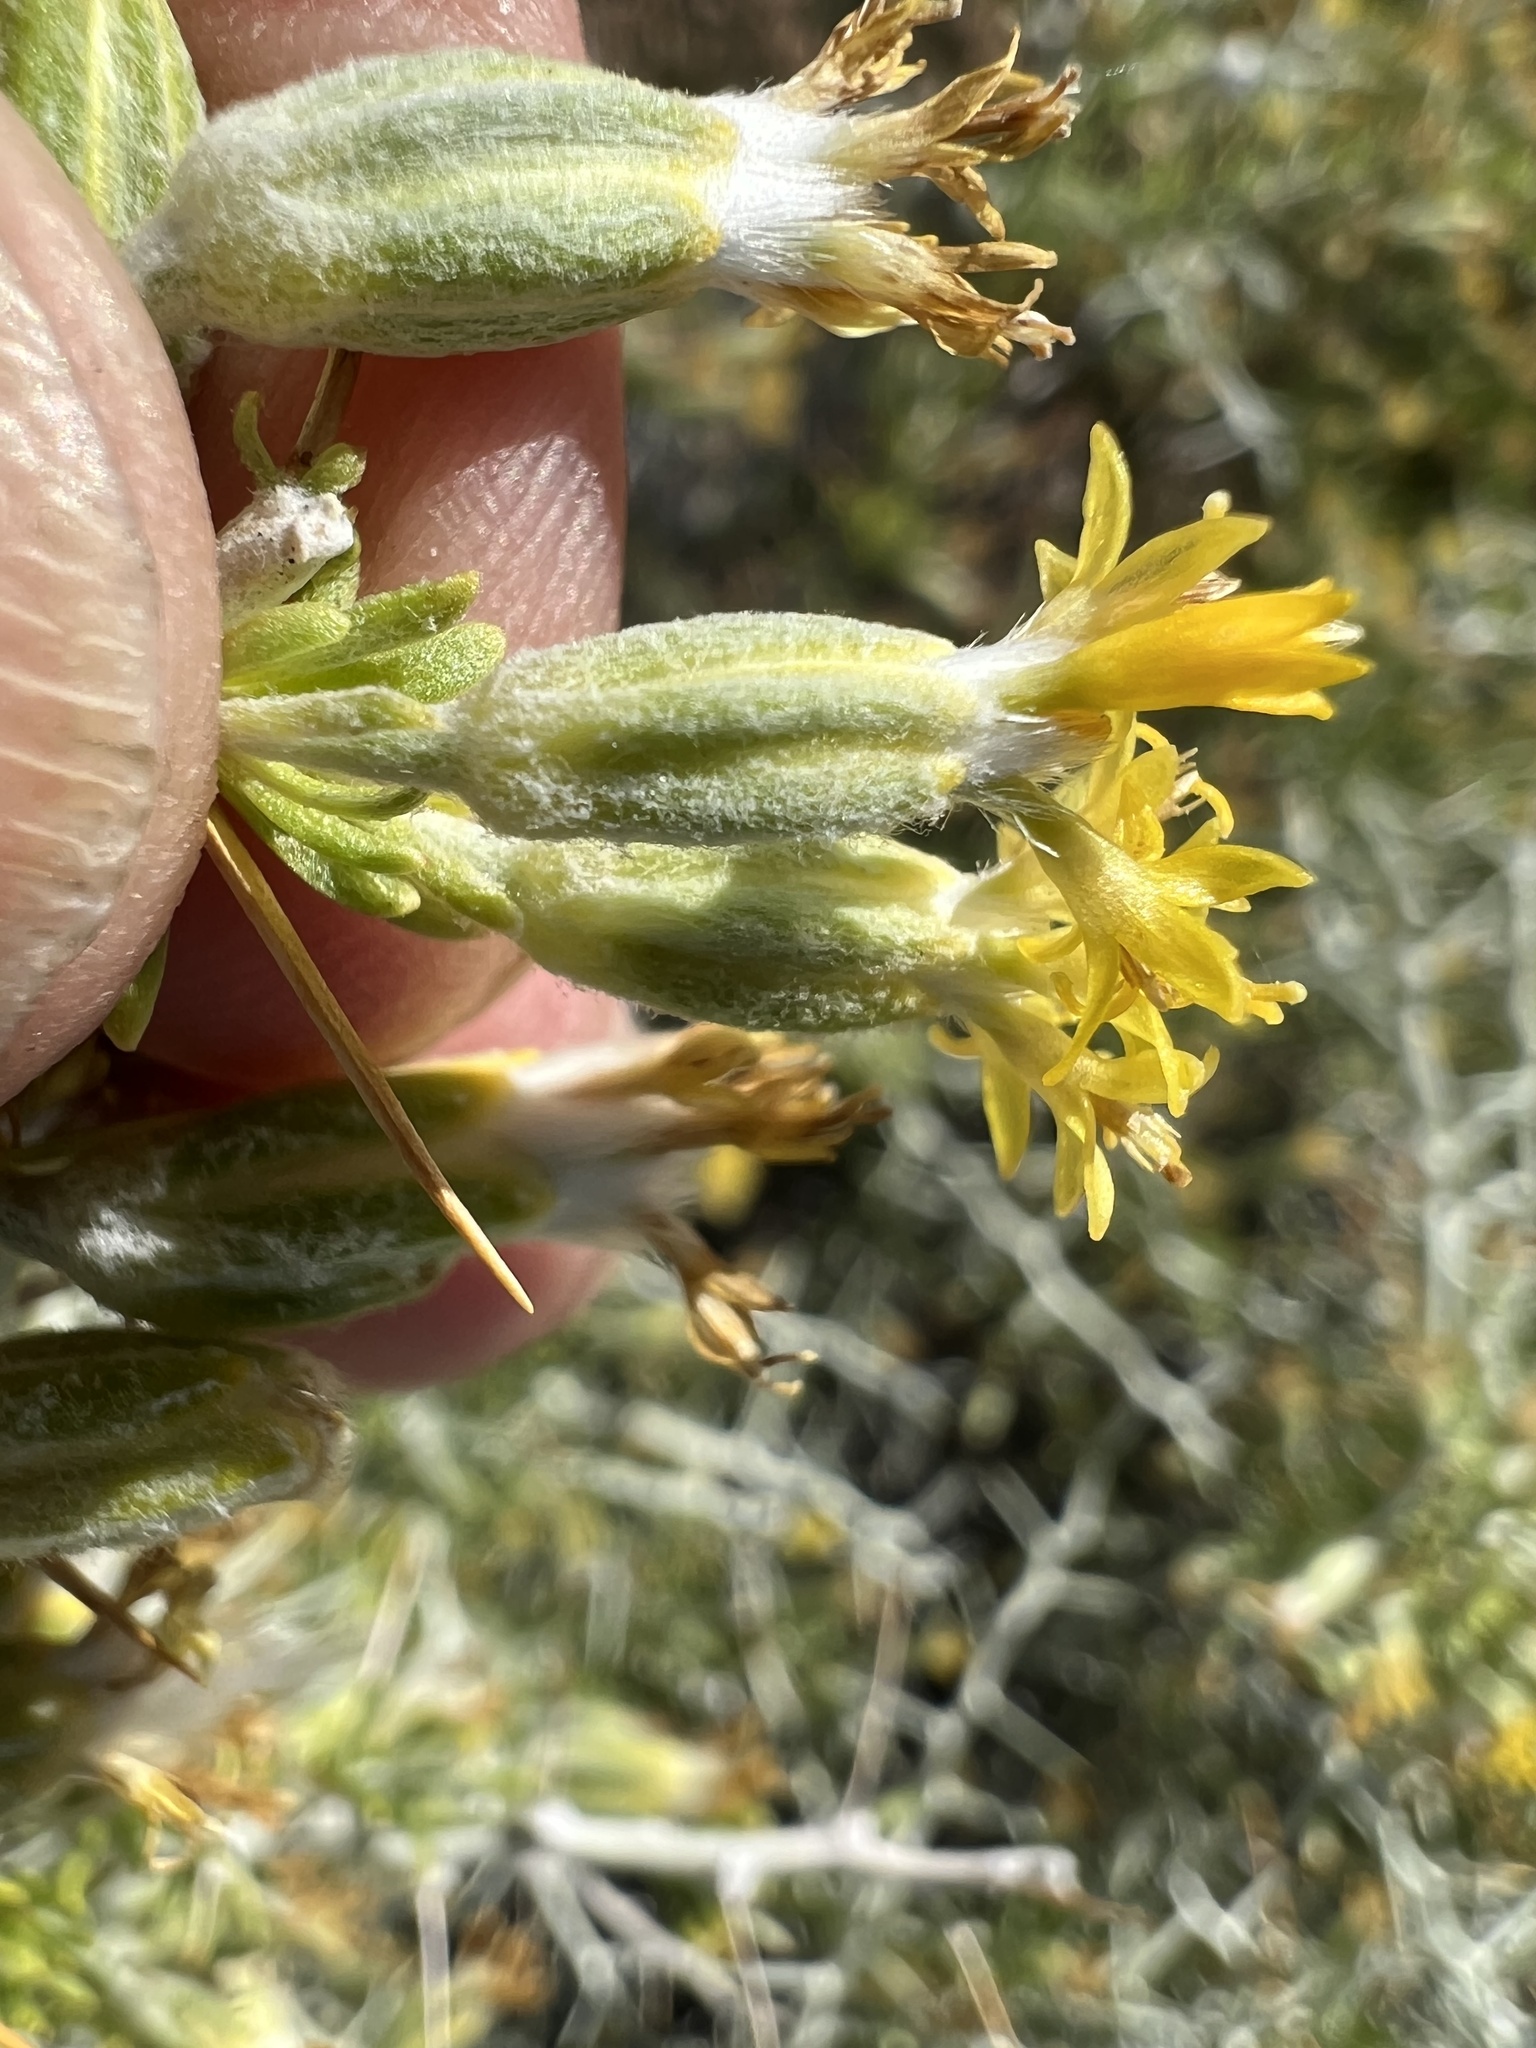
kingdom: Plantae
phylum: Tracheophyta
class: Magnoliopsida
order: Asterales
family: Asteraceae
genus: Tetradymia
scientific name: Tetradymia axillaris
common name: Long-spine horsebrush
